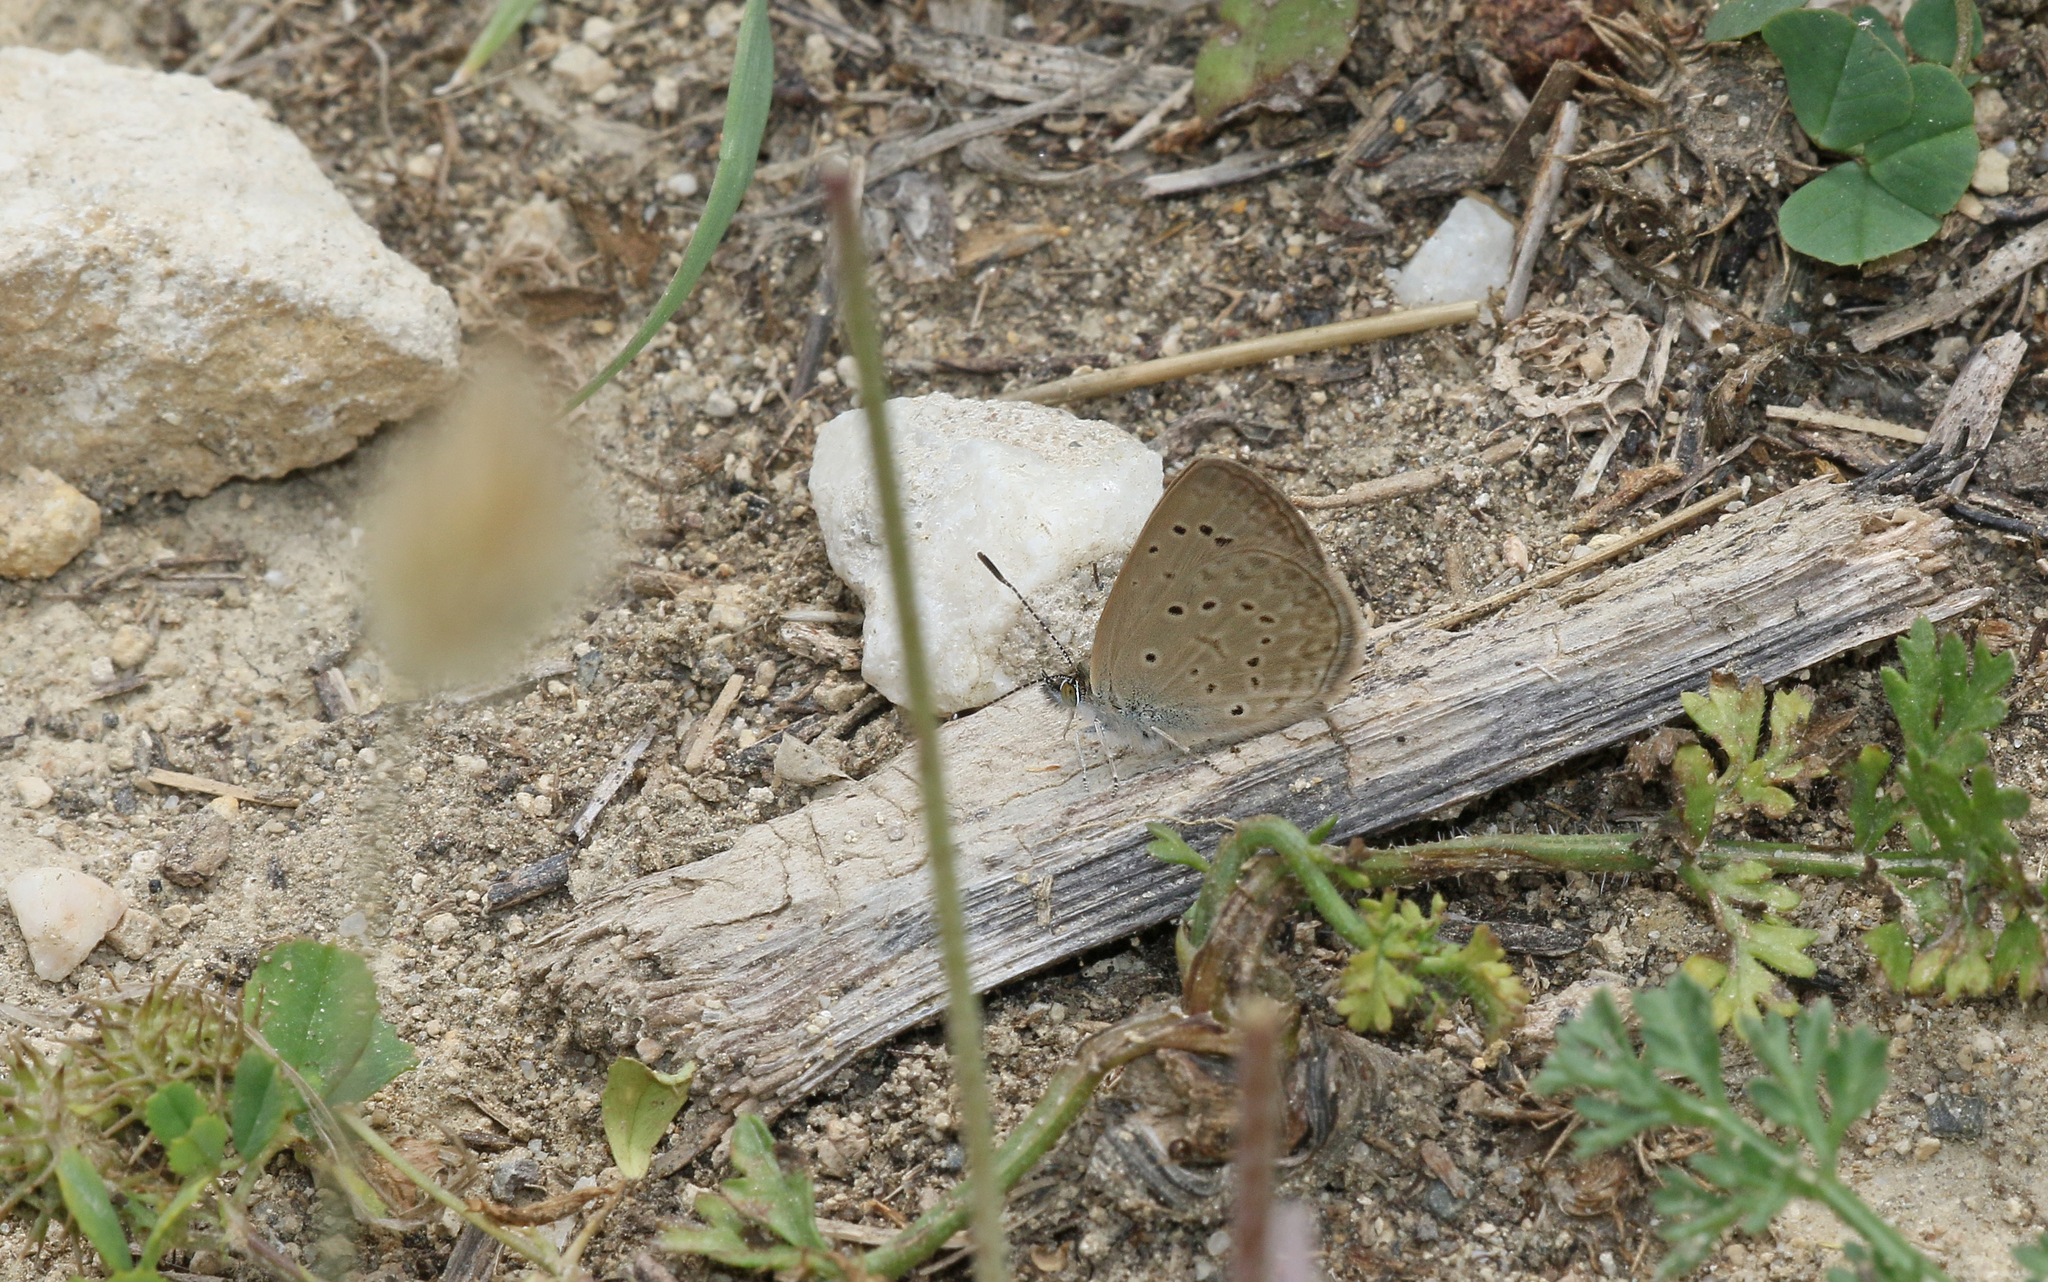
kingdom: Animalia
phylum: Arthropoda
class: Insecta
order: Lepidoptera
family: Lycaenidae
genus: Zizeeria
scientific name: Zizeeria knysna
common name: African grass blue
